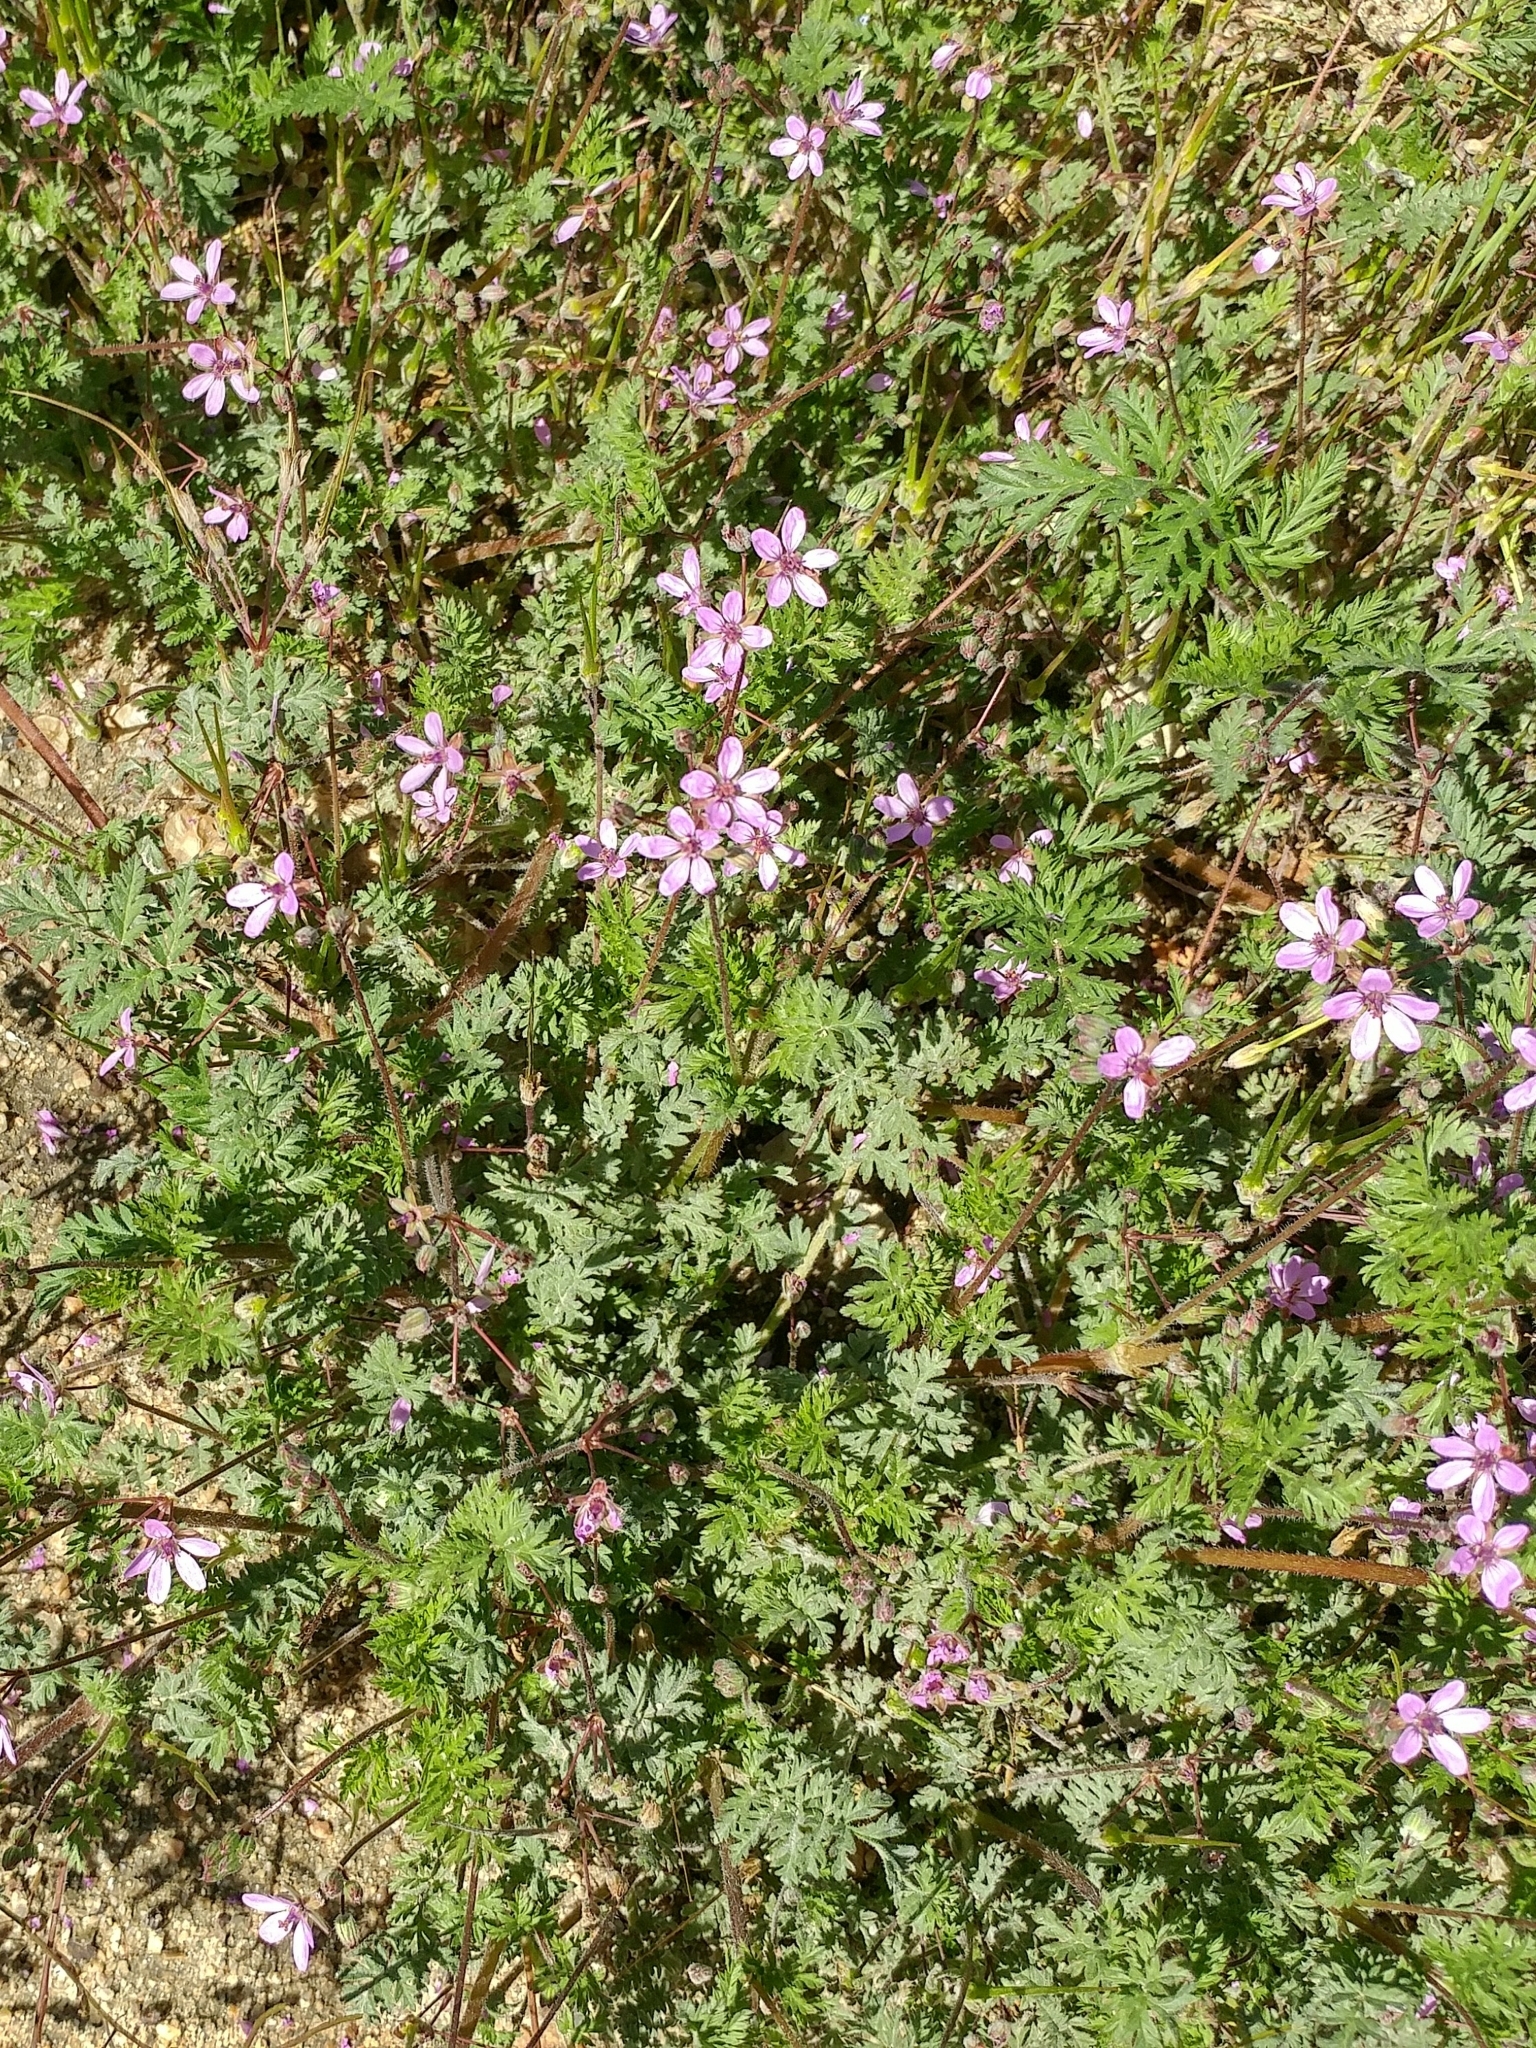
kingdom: Plantae
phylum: Tracheophyta
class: Magnoliopsida
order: Geraniales
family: Geraniaceae
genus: Erodium
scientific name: Erodium cicutarium
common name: Common stork's-bill
